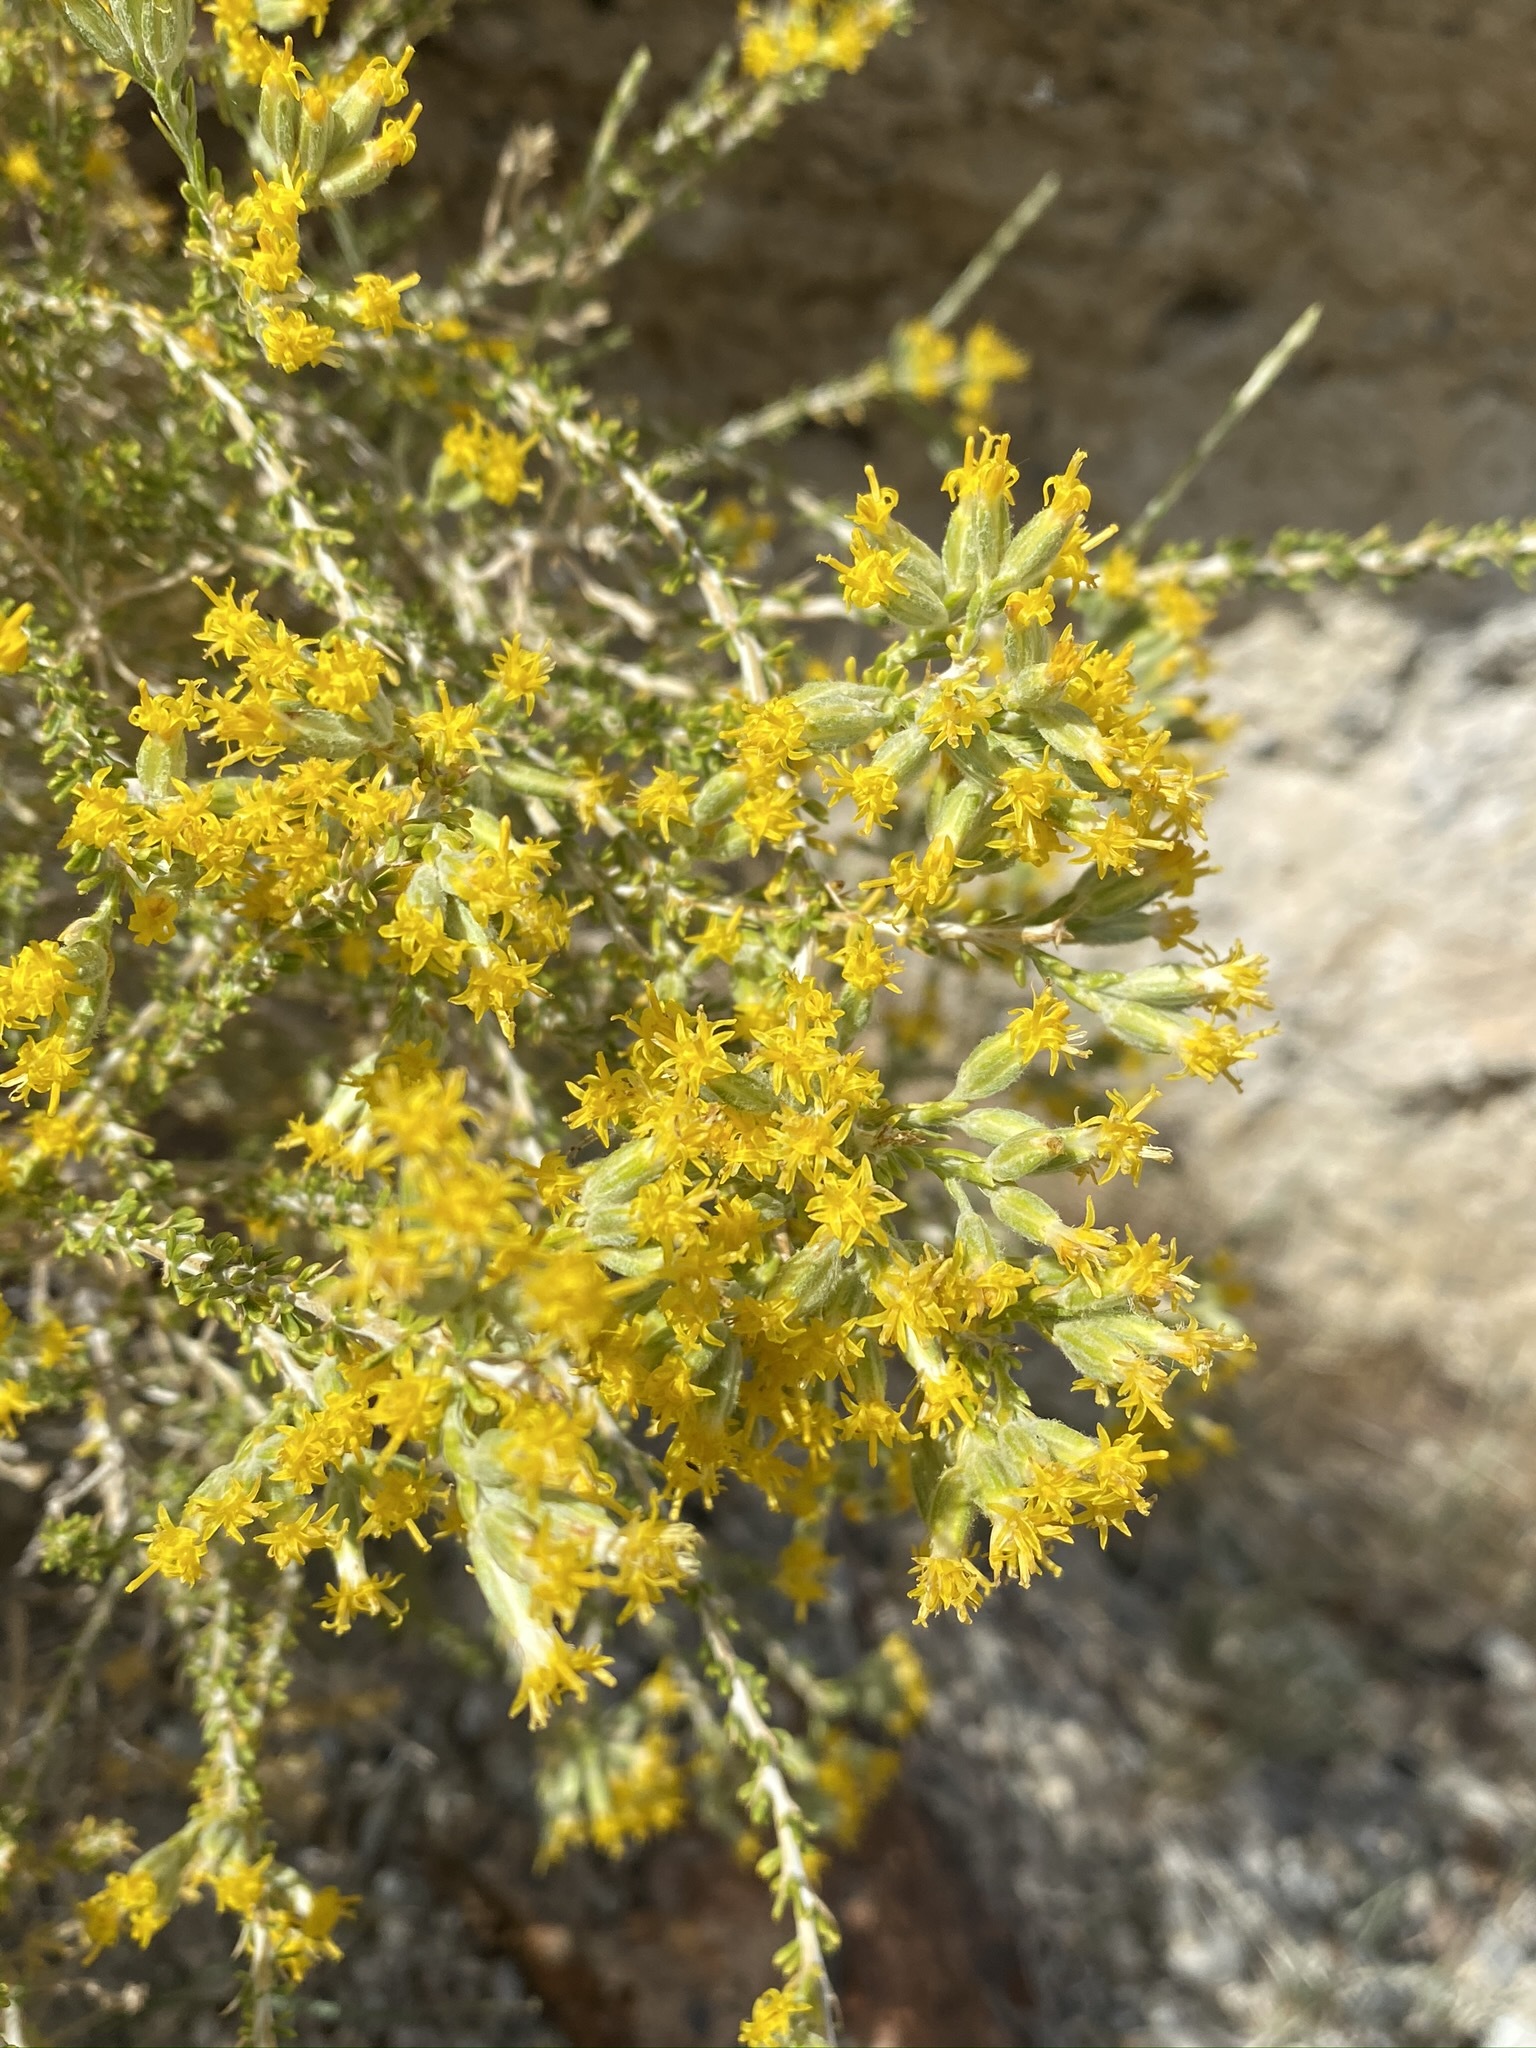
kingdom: Plantae
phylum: Tracheophyta
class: Magnoliopsida
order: Asterales
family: Asteraceae
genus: Tetradymia
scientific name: Tetradymia glabrata
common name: Smooth tetradymia
